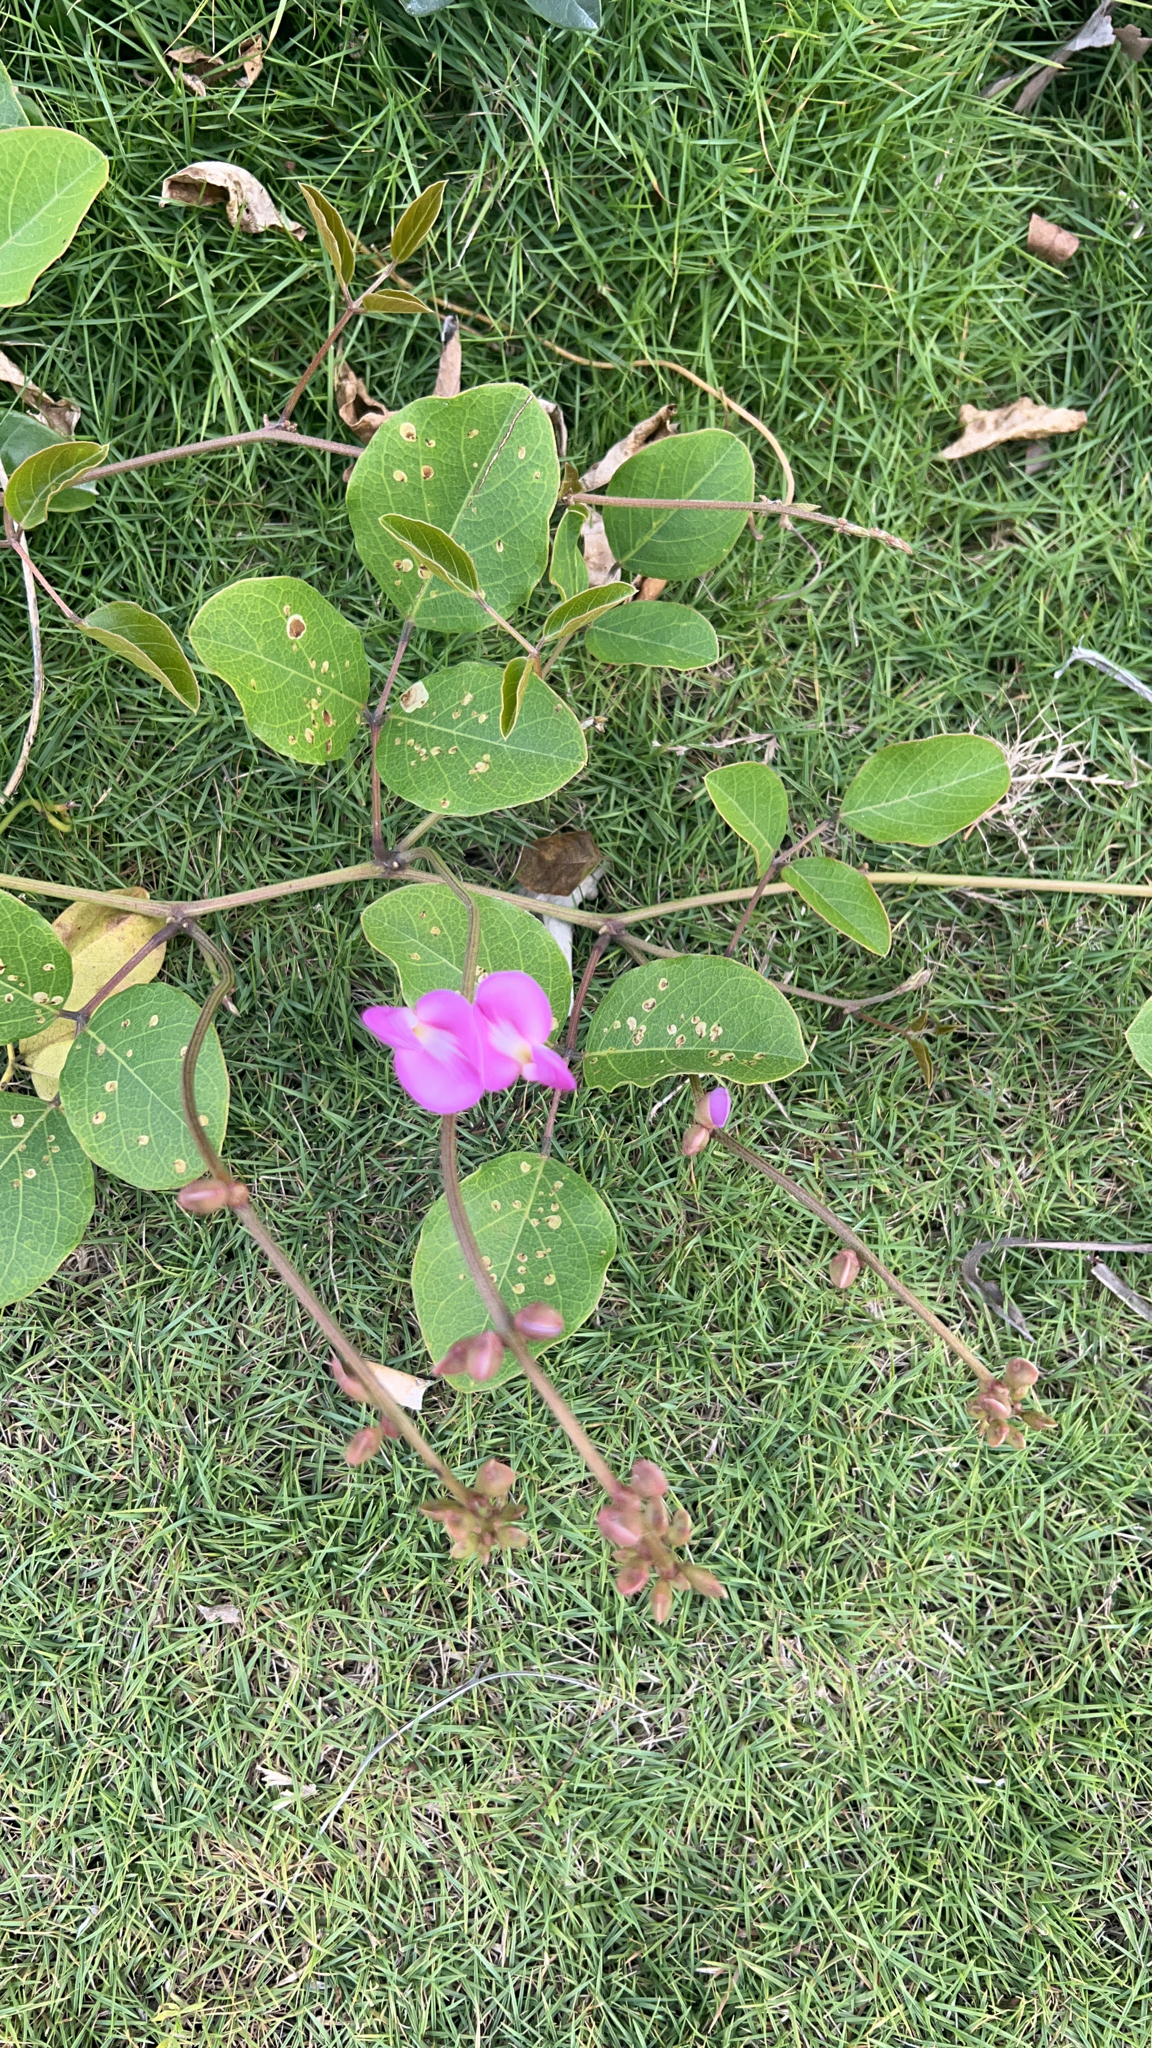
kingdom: Plantae
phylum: Tracheophyta
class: Magnoliopsida
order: Fabales
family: Fabaceae
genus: Canavalia
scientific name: Canavalia rosea
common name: Beach-bean
